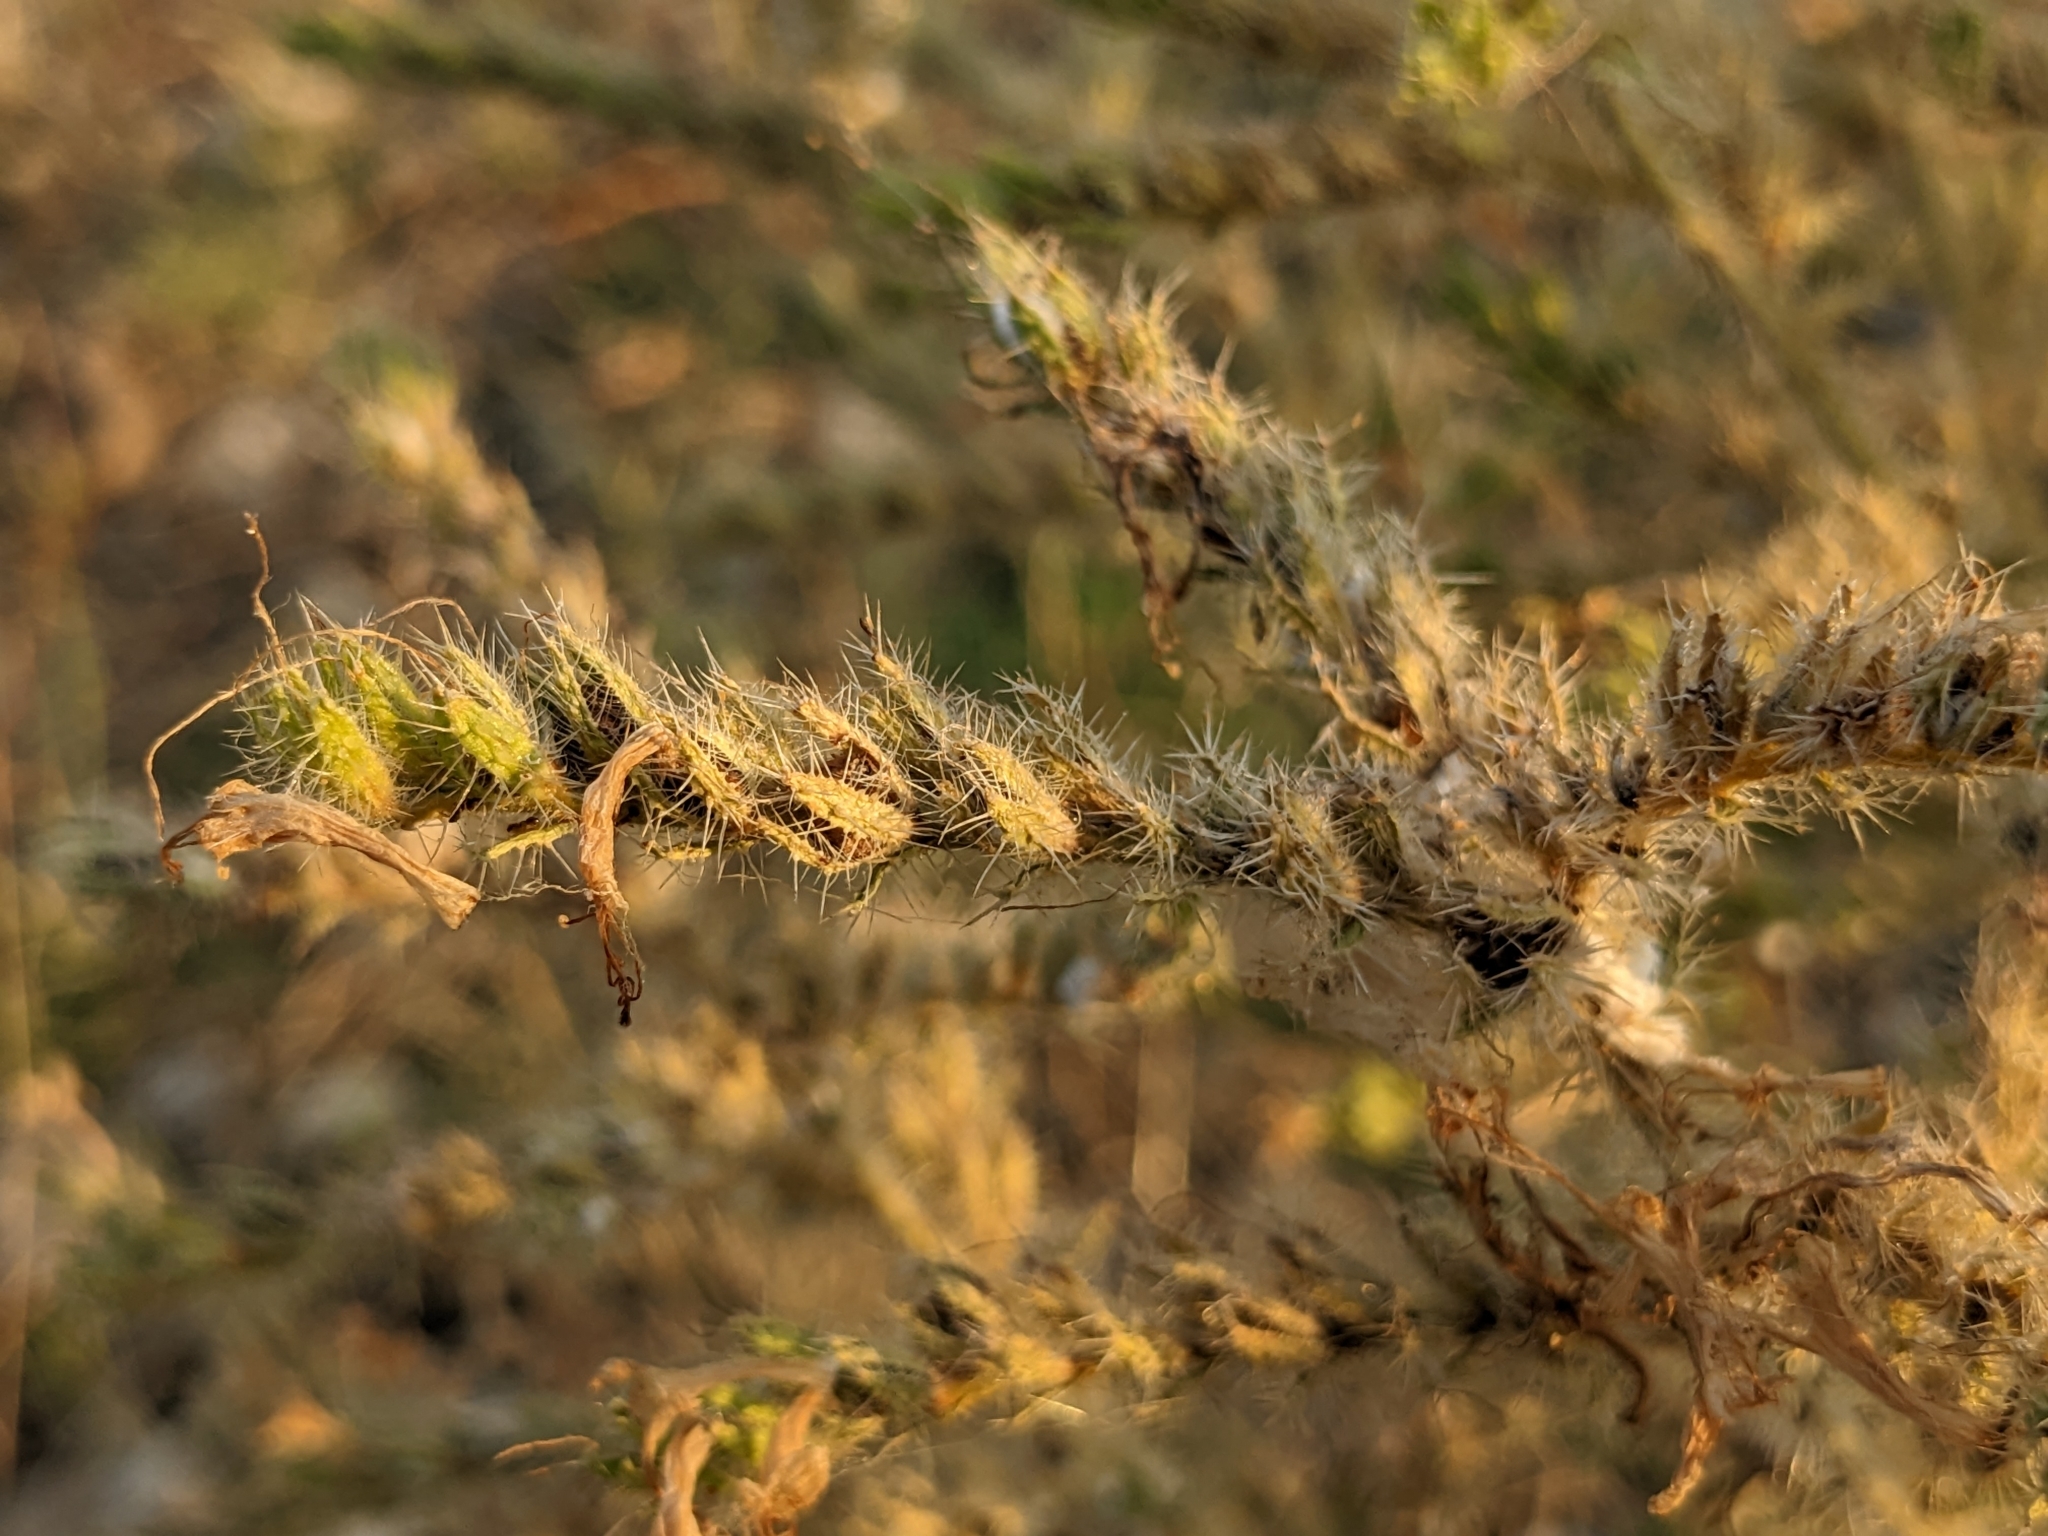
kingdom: Plantae
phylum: Tracheophyta
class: Magnoliopsida
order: Boraginales
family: Boraginaceae
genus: Echium
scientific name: Echium italicum
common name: Italian viper's bugloss
